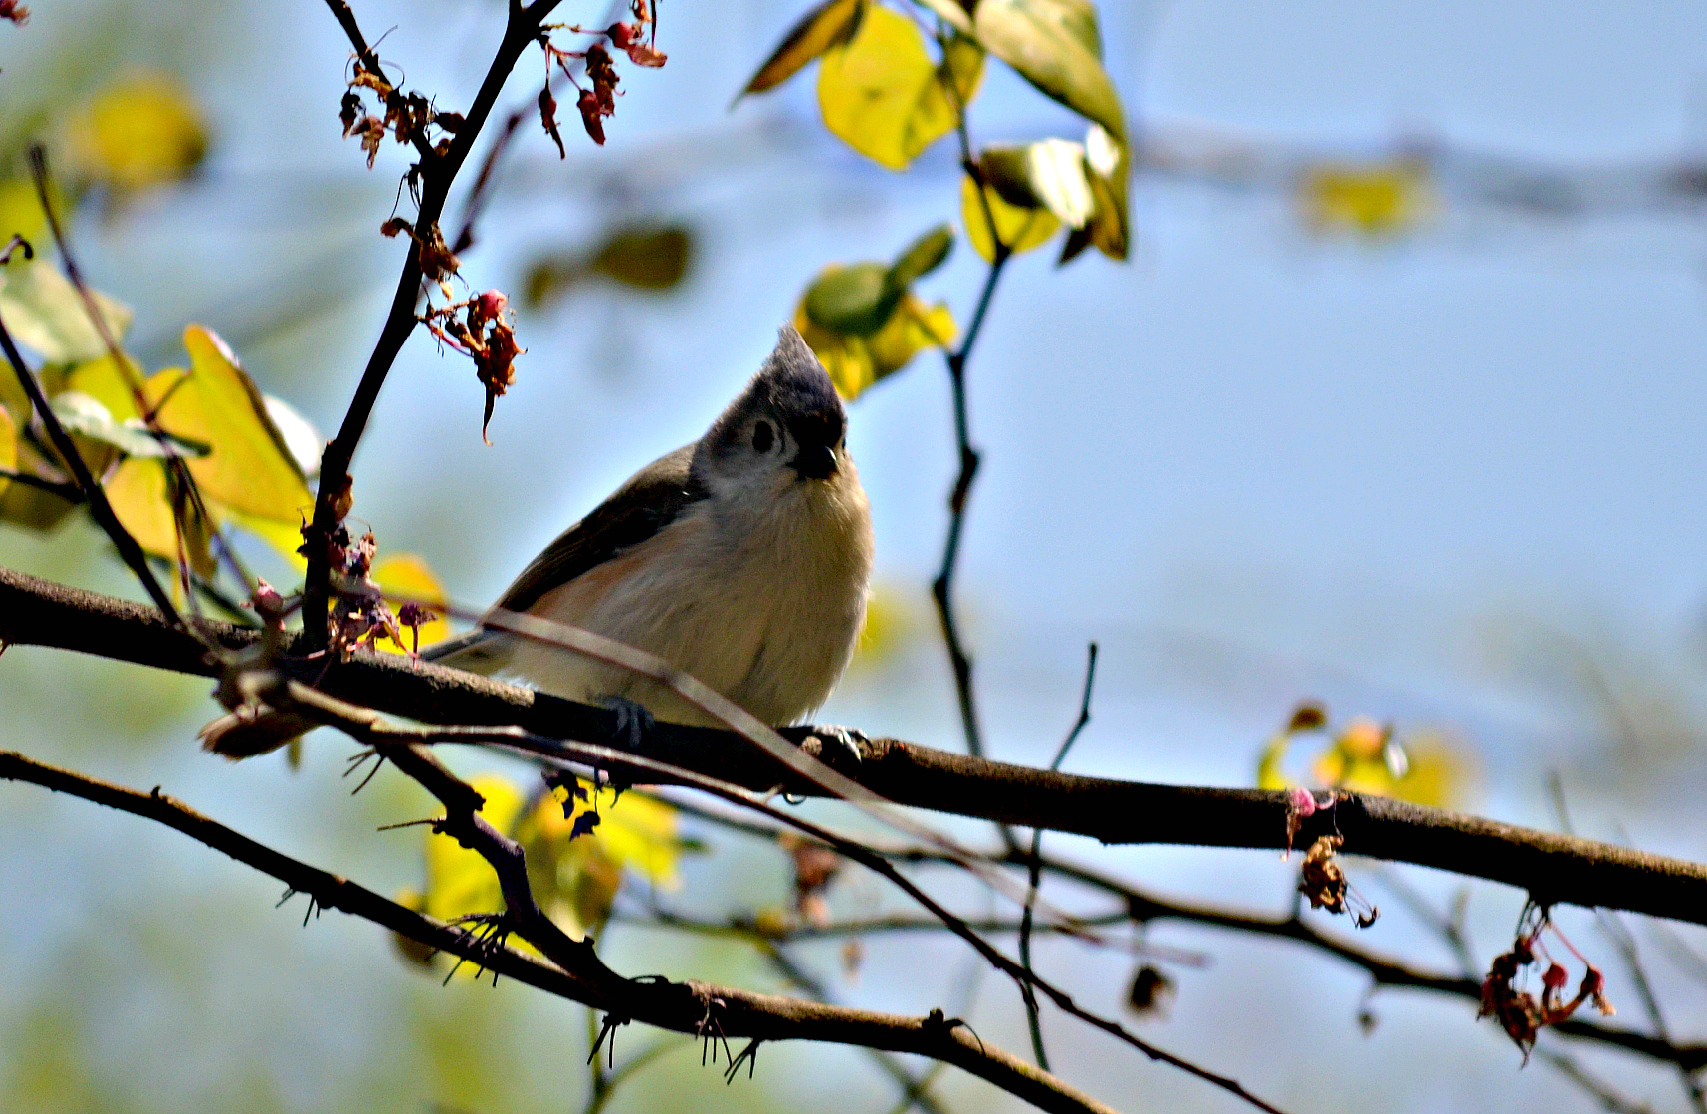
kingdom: Animalia
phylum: Chordata
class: Aves
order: Passeriformes
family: Paridae
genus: Baeolophus
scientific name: Baeolophus bicolor
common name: Tufted titmouse
